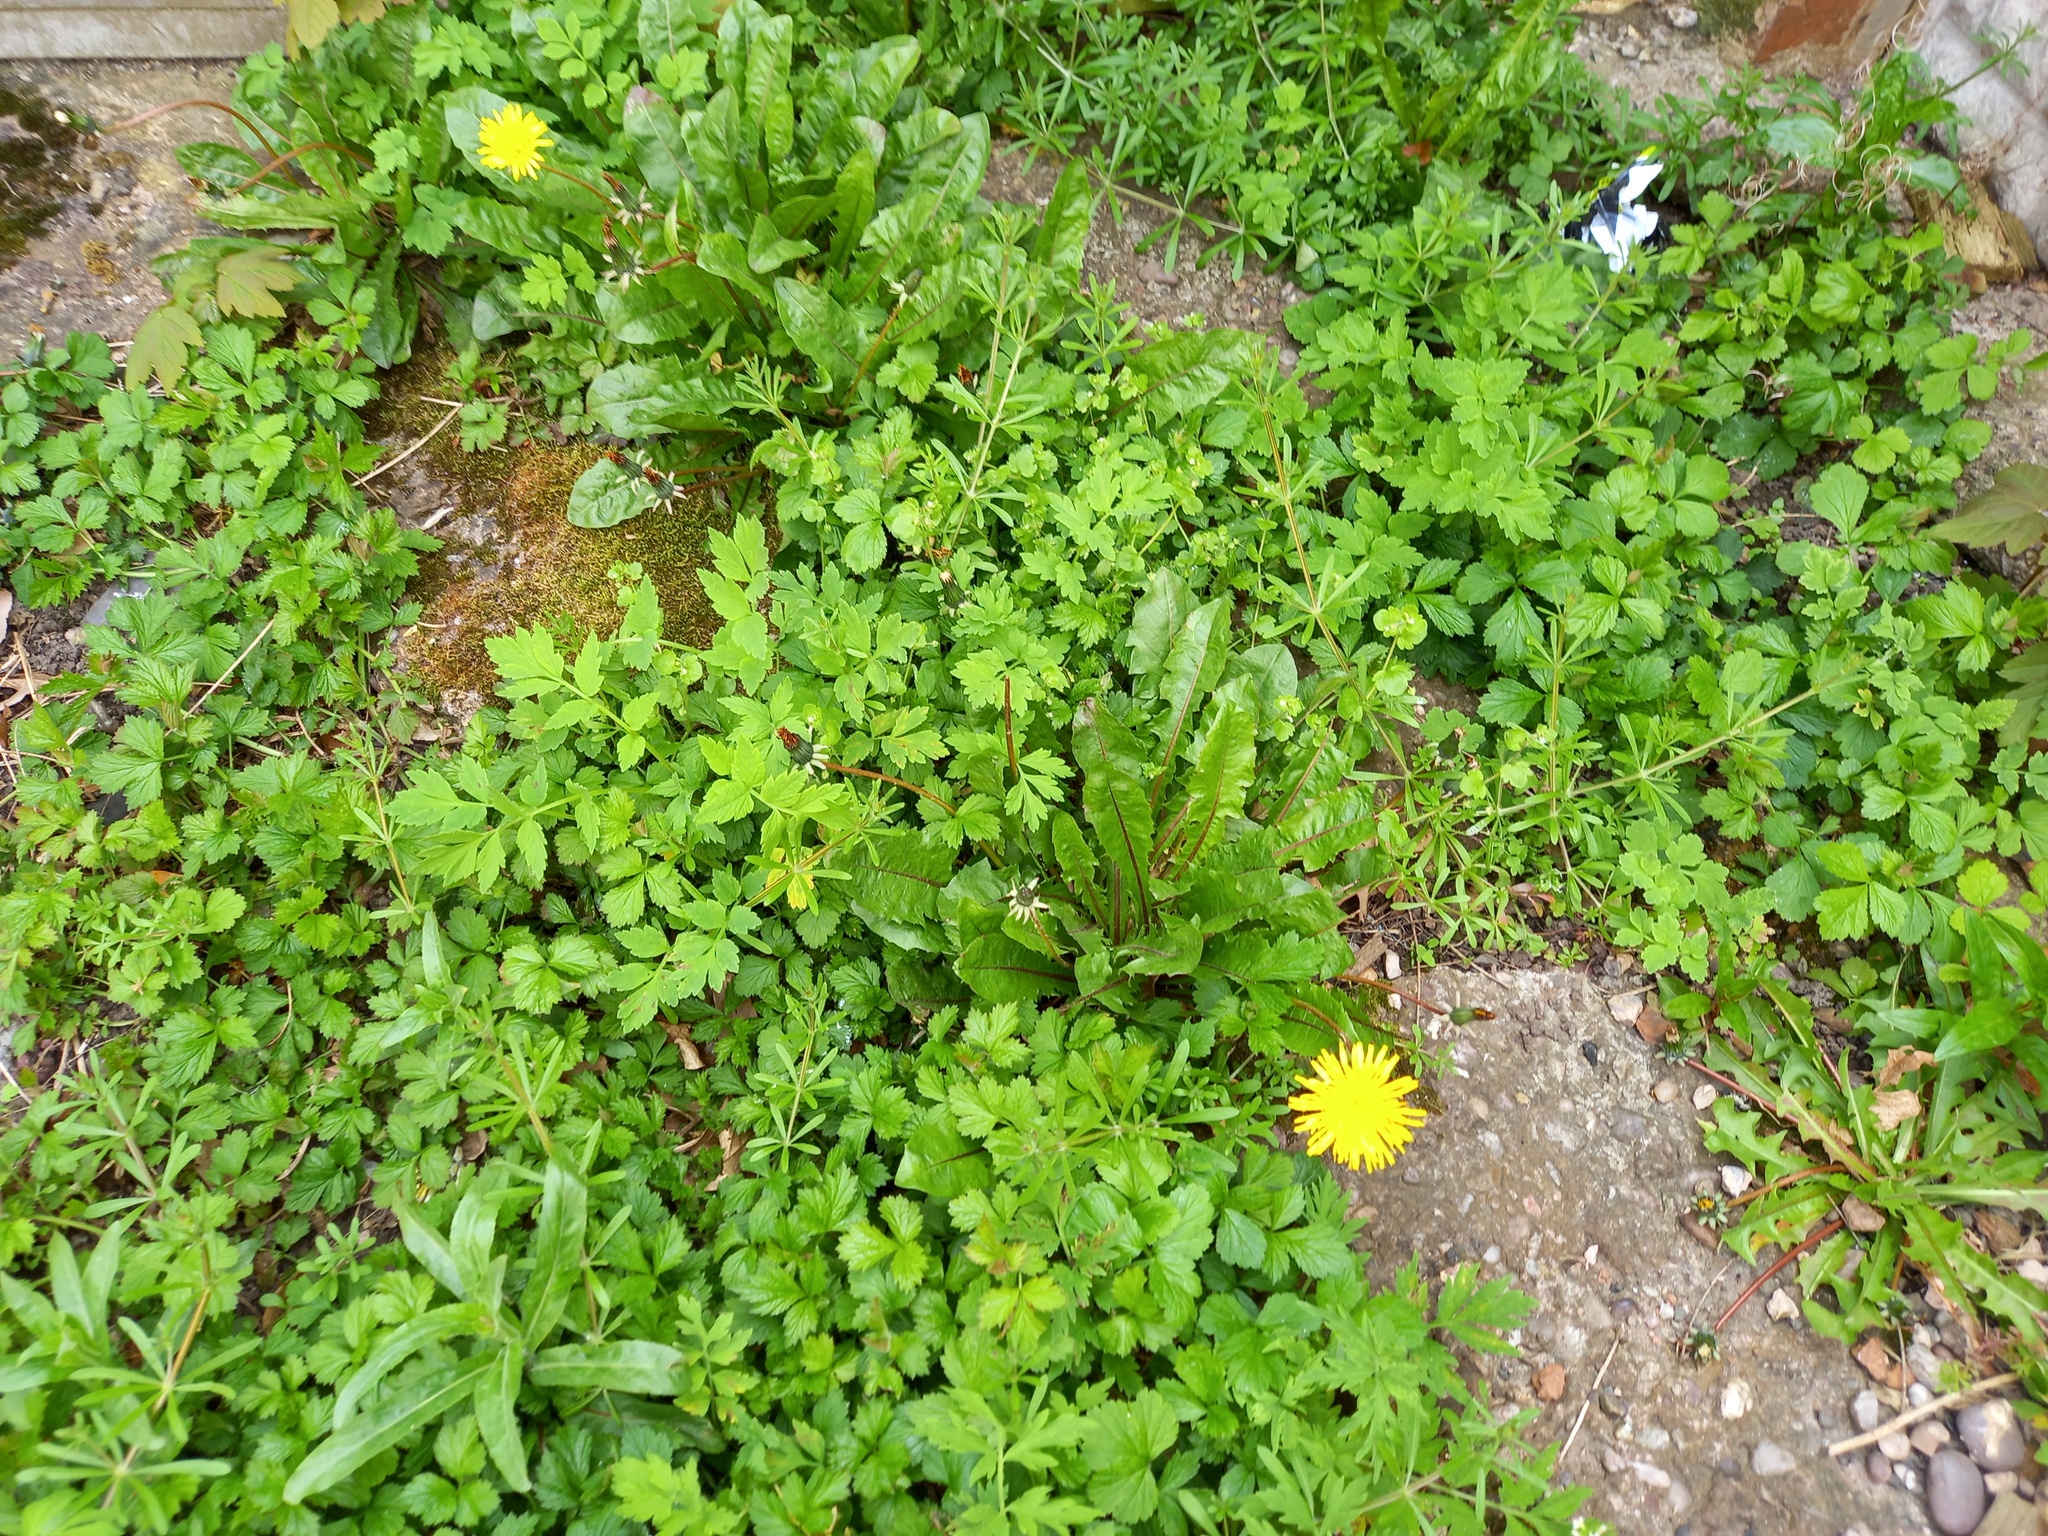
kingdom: Plantae
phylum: Tracheophyta
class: Magnoliopsida
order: Asterales
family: Asteraceae
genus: Taraxacum
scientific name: Taraxacum officinale
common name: Common dandelion
